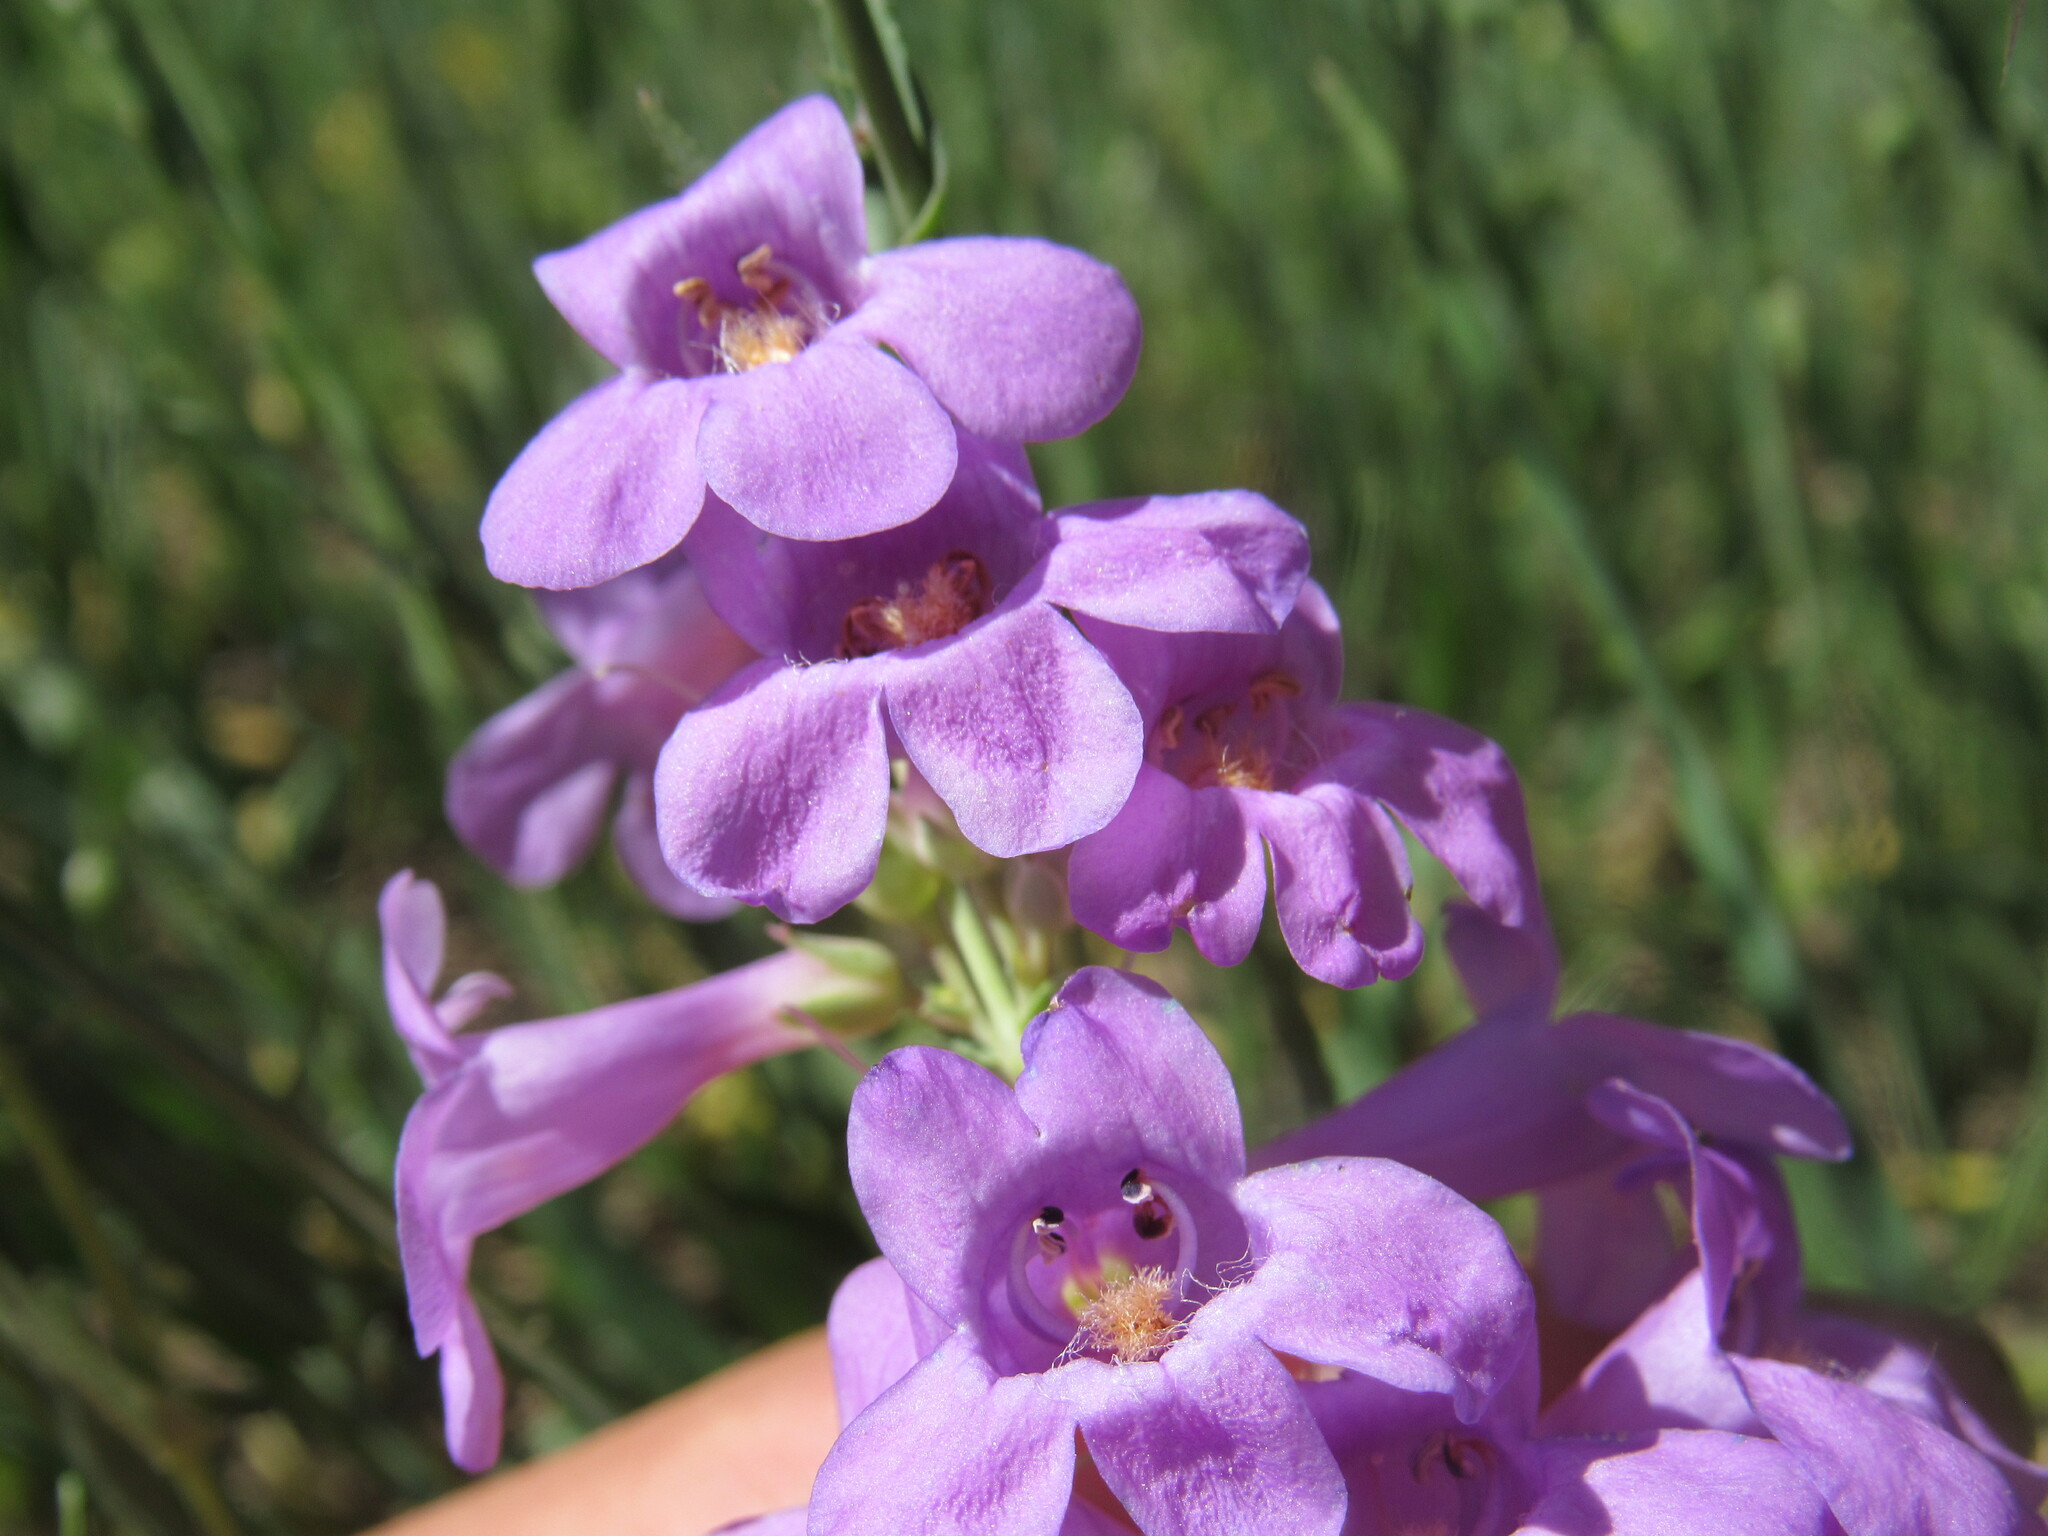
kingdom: Plantae
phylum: Tracheophyta
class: Magnoliopsida
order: Lamiales
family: Plantaginaceae
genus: Penstemon
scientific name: Penstemon secundiflorus
